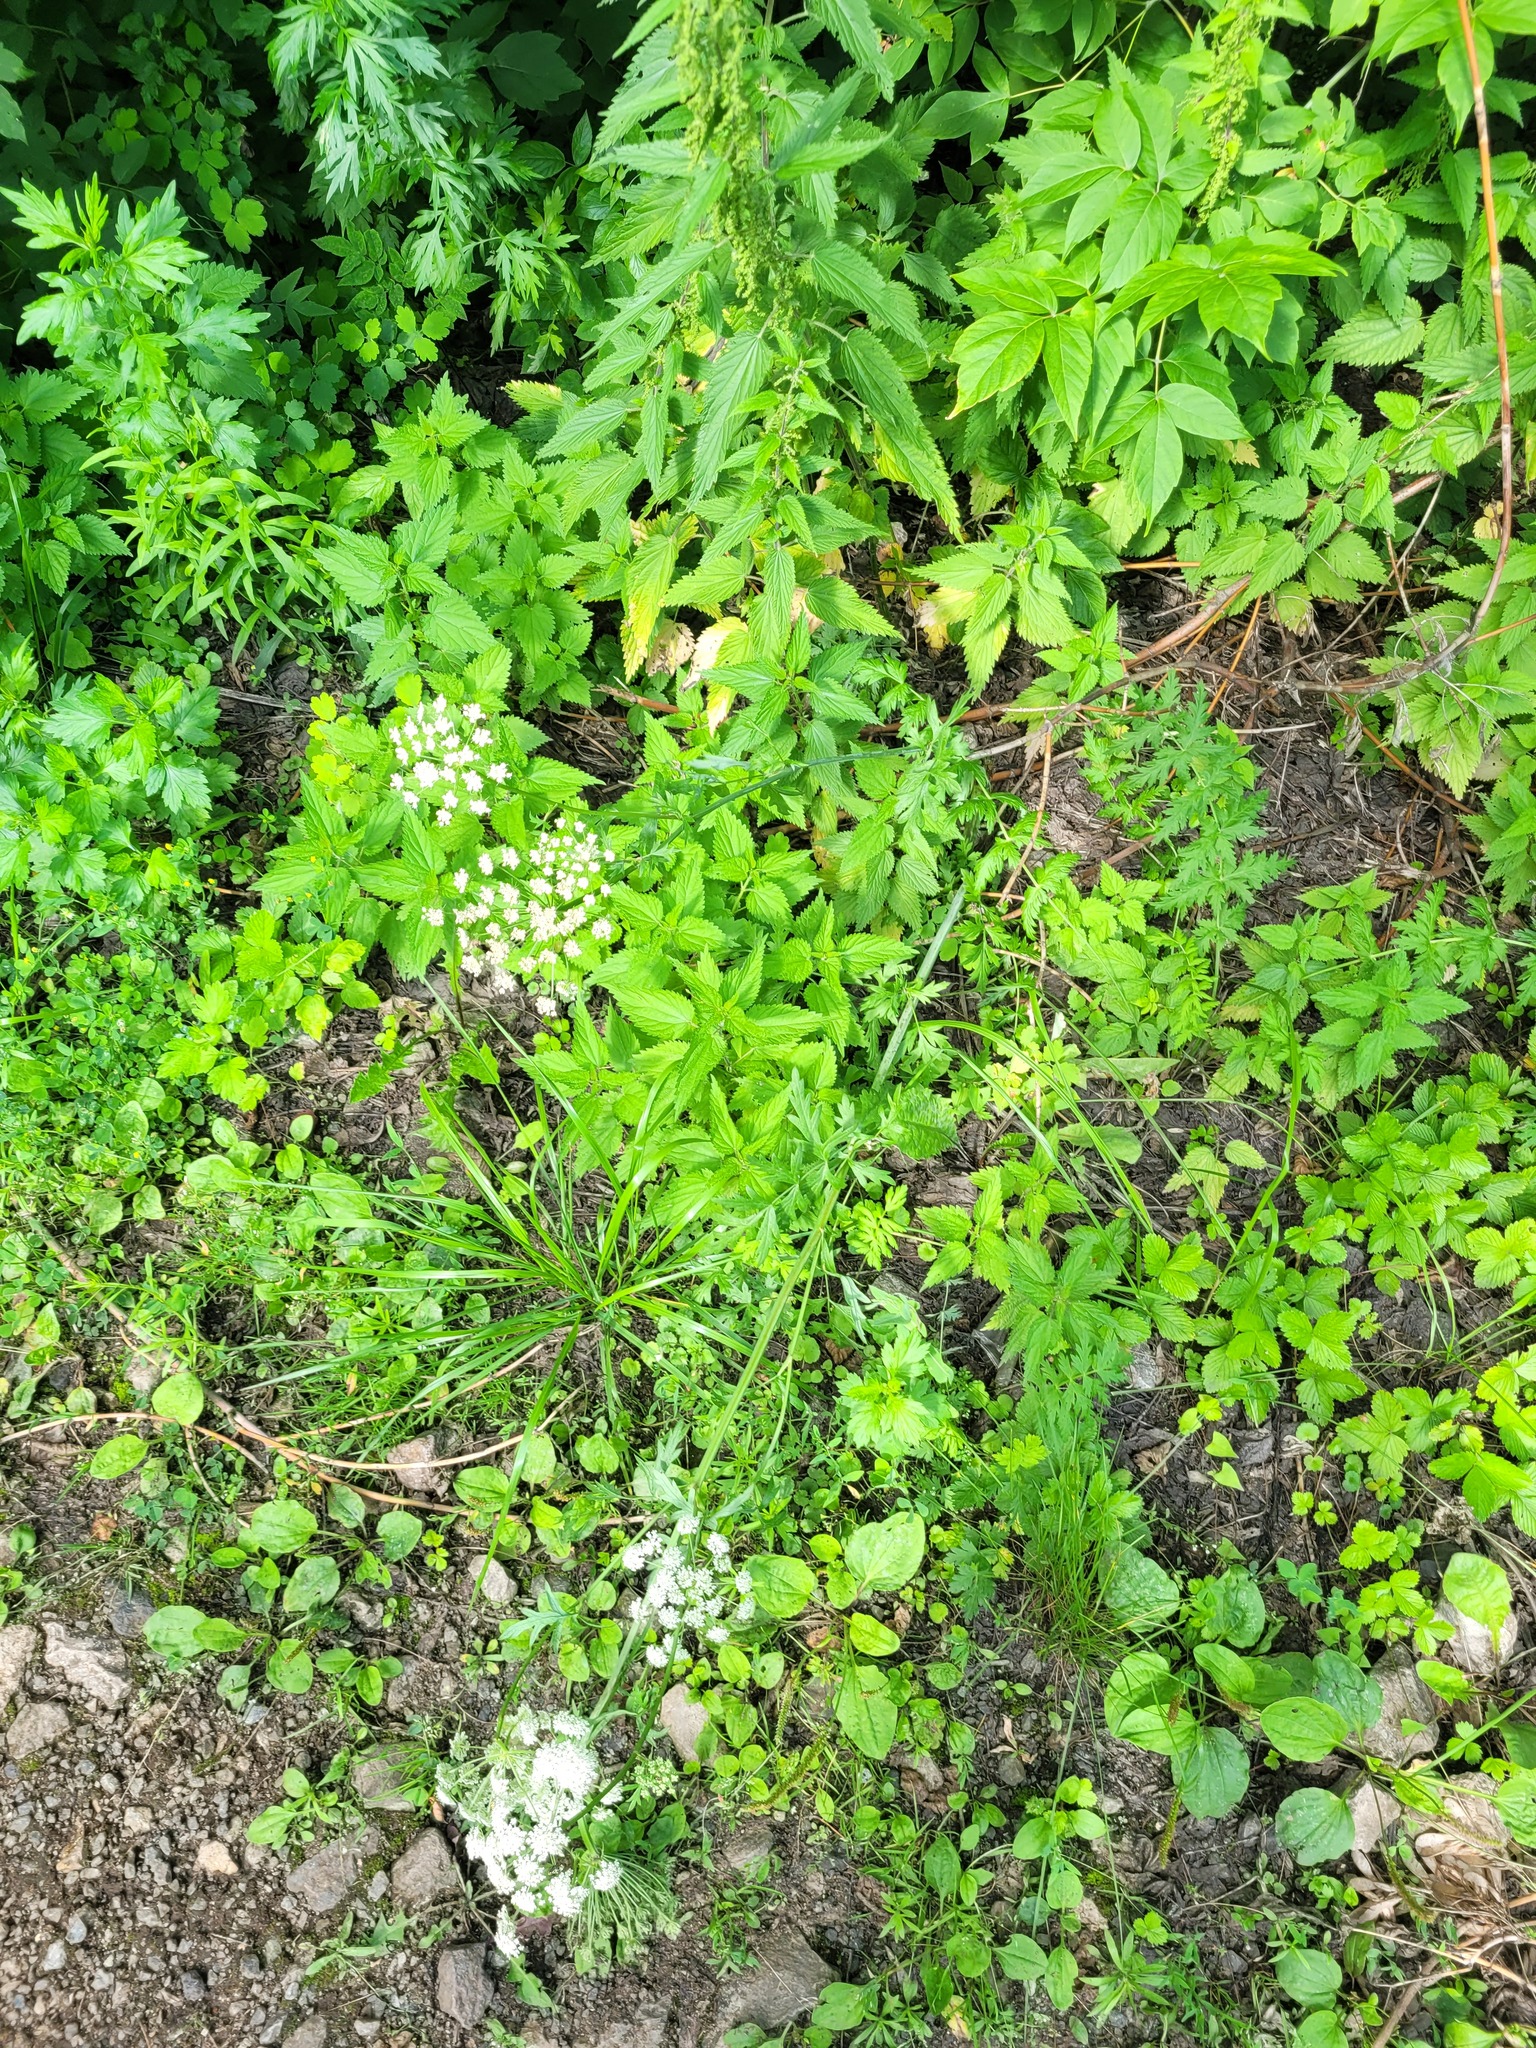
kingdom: Plantae
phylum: Tracheophyta
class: Magnoliopsida
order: Rosales
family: Urticaceae
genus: Urtica
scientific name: Urtica dioica
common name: Common nettle
